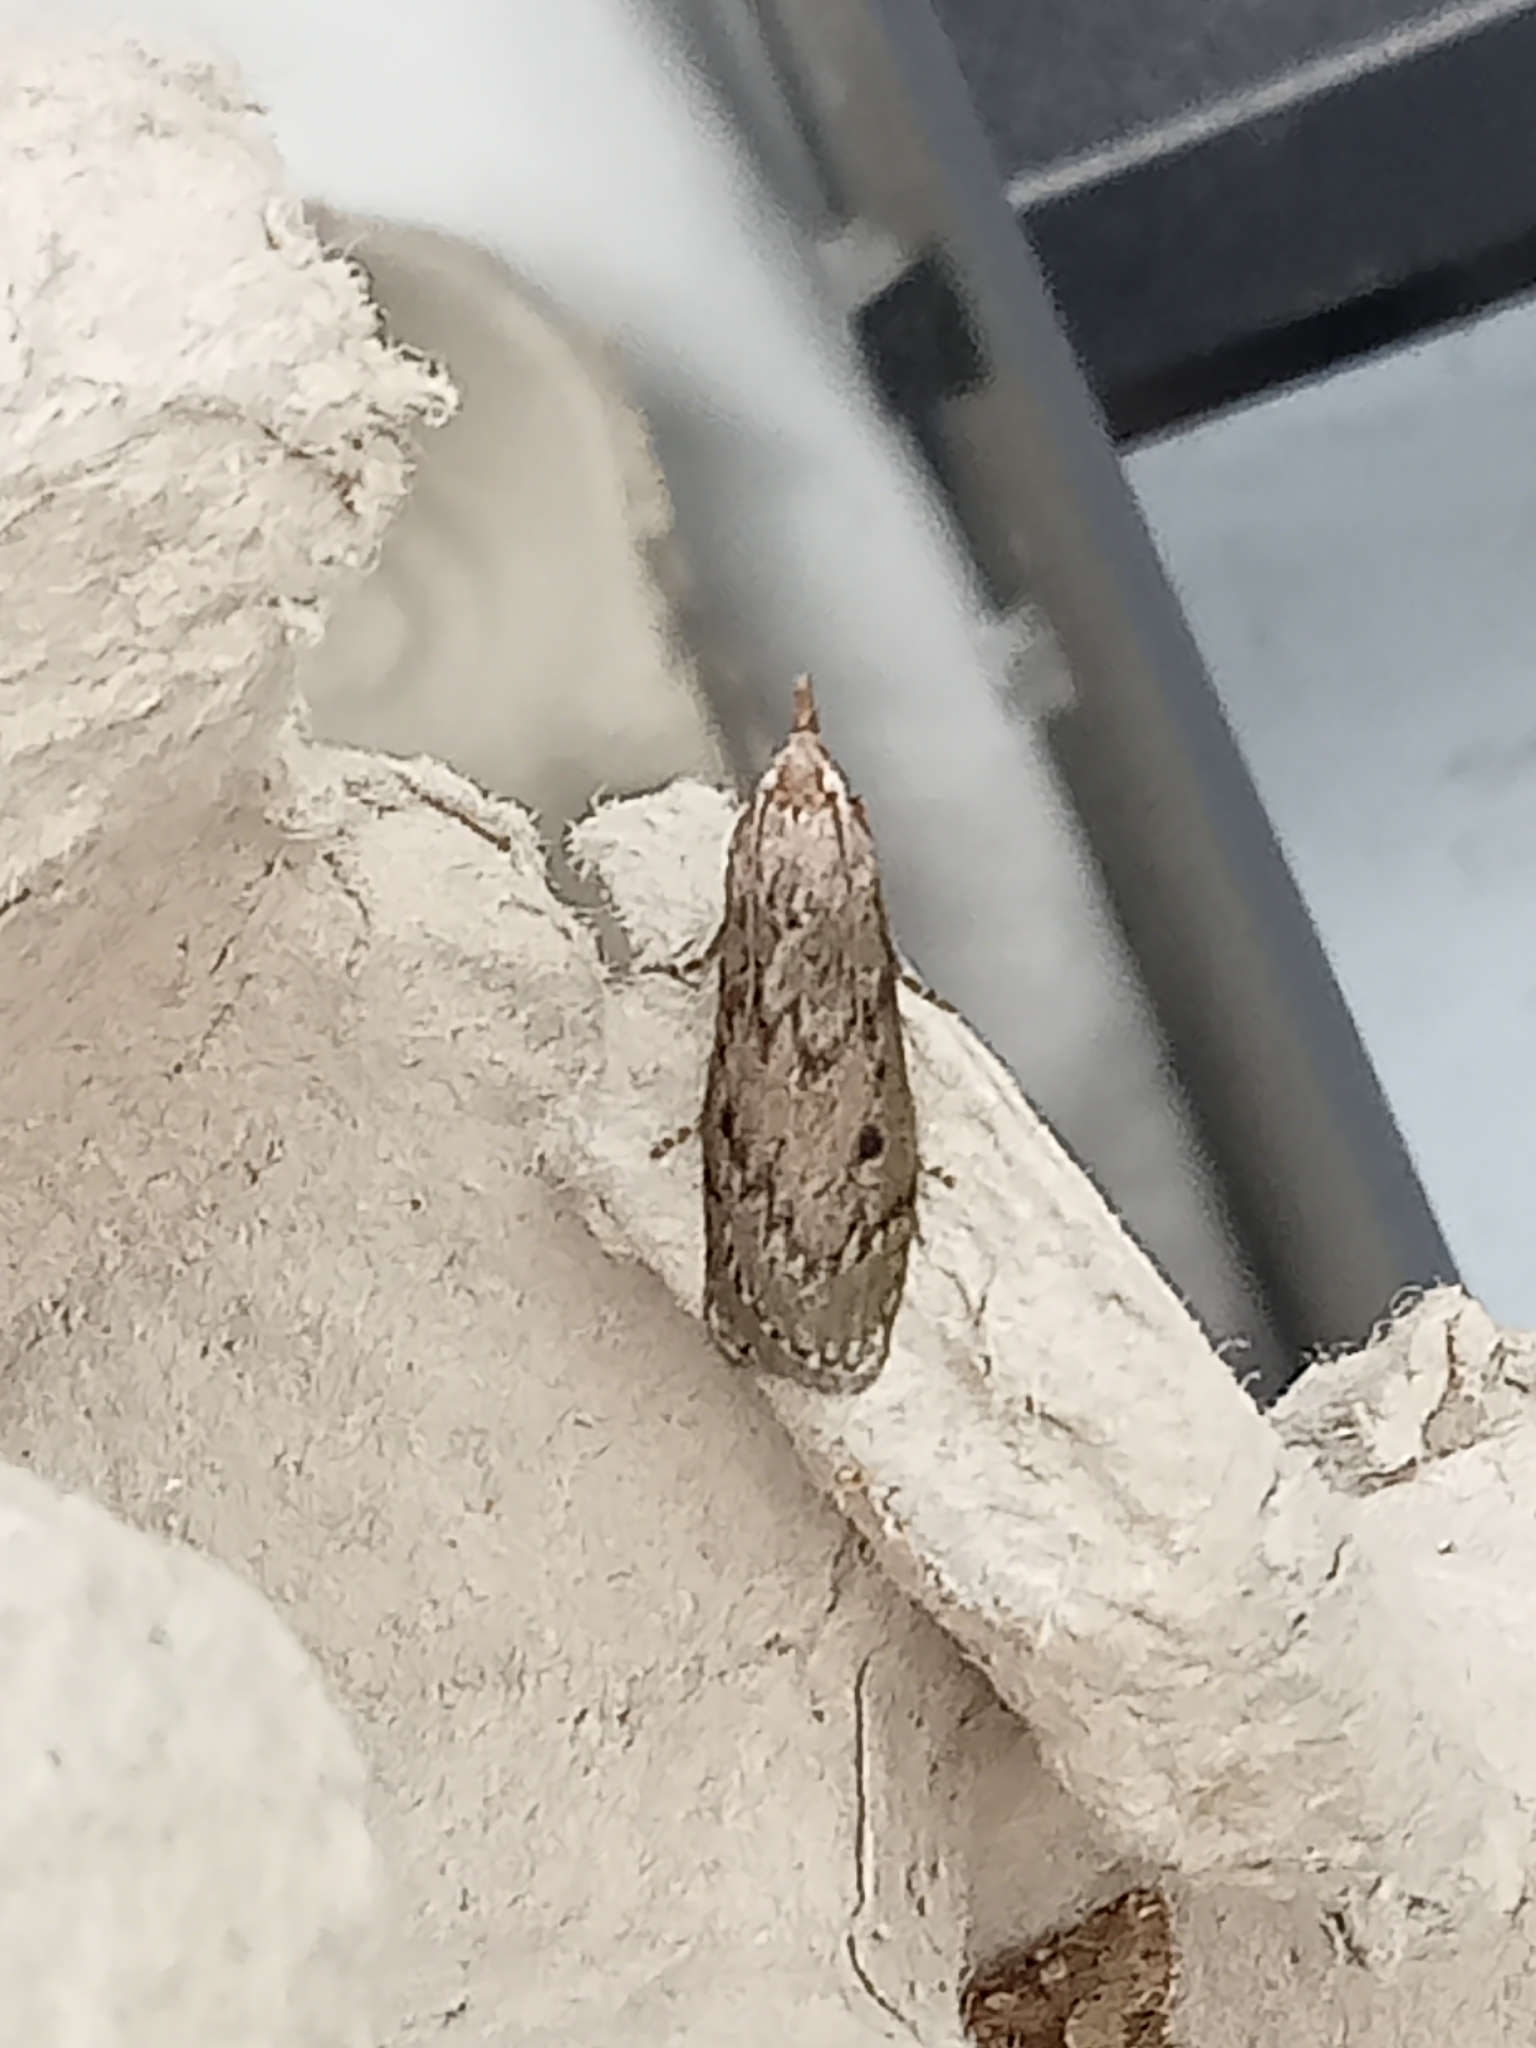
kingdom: Animalia
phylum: Arthropoda
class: Insecta
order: Lepidoptera
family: Pyralidae
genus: Aphomia
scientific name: Aphomia sociella
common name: Bee moth
